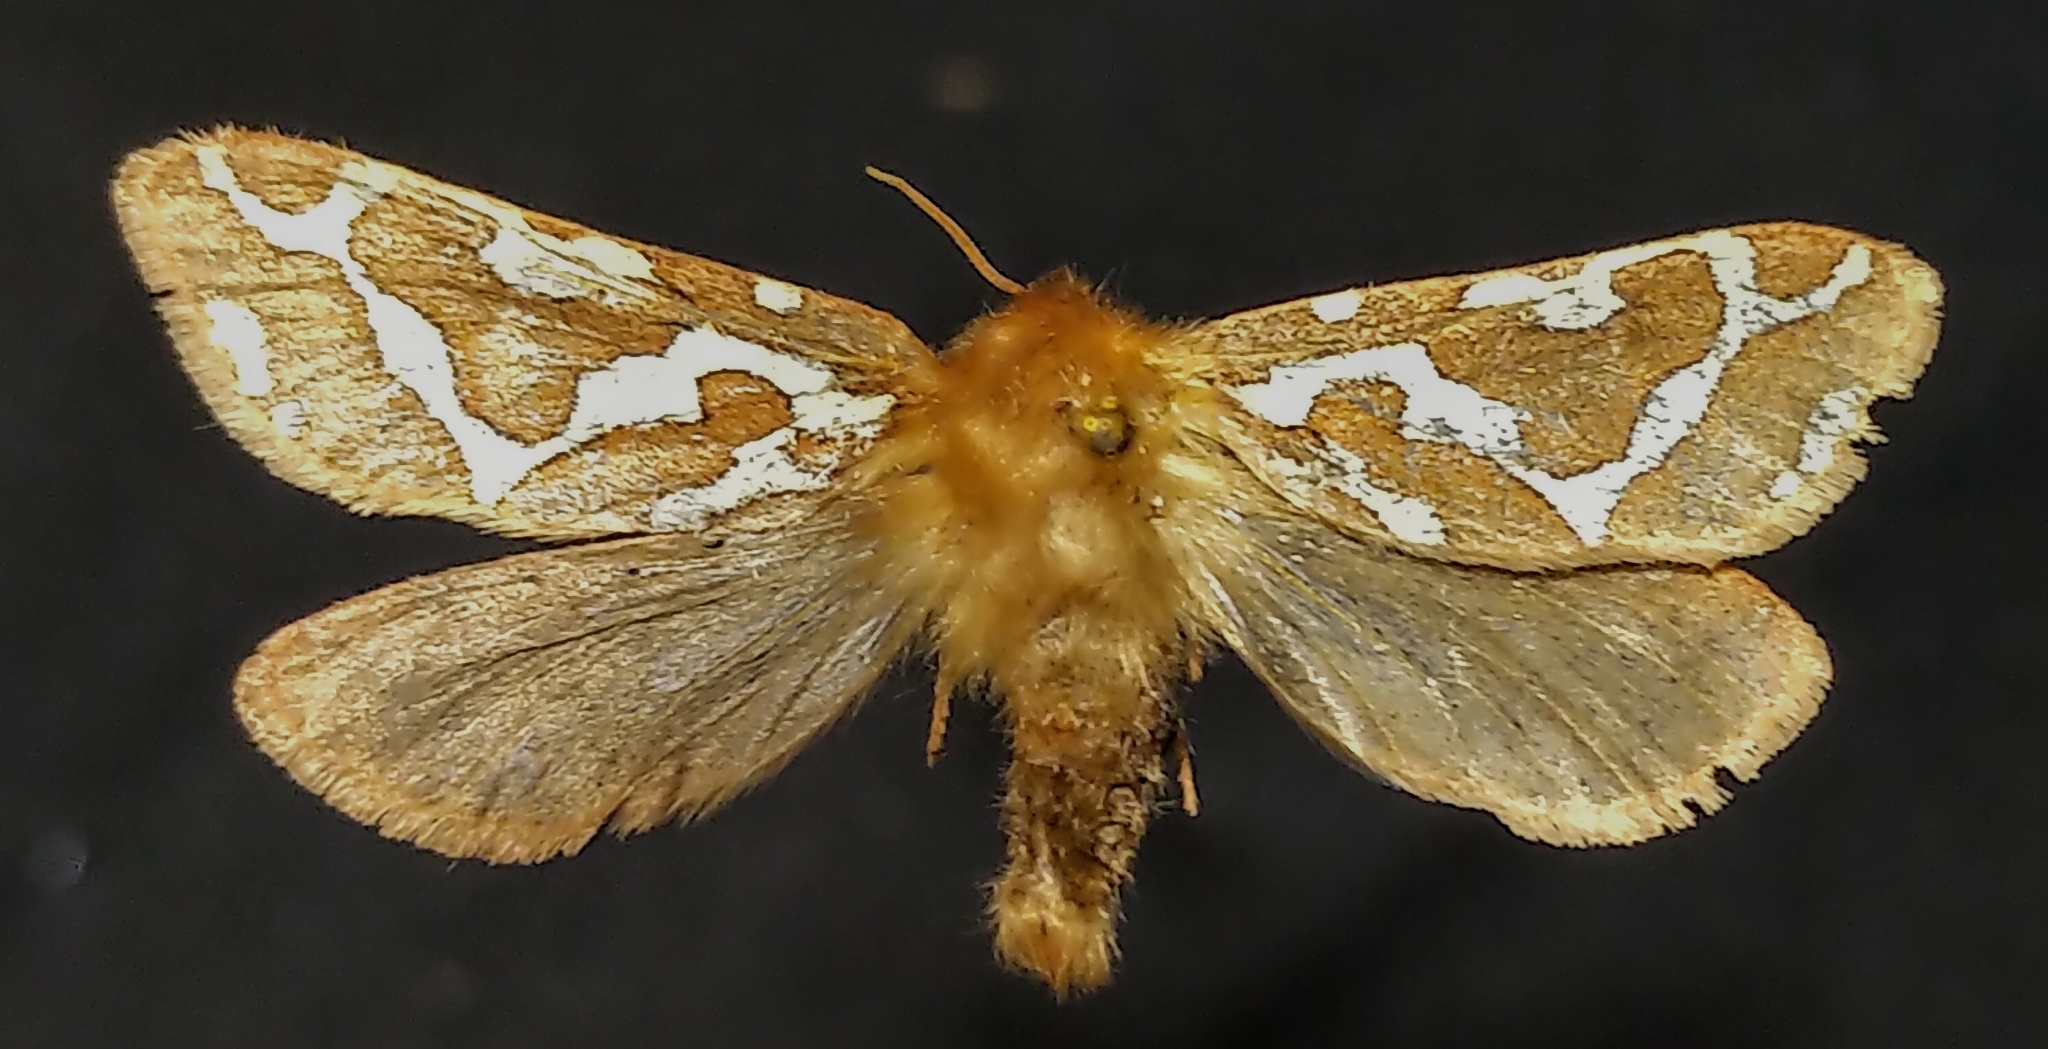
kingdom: Animalia
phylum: Arthropoda
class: Insecta
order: Lepidoptera
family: Hepialidae
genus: Gazoryctra
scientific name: Gazoryctra hyperboreus
